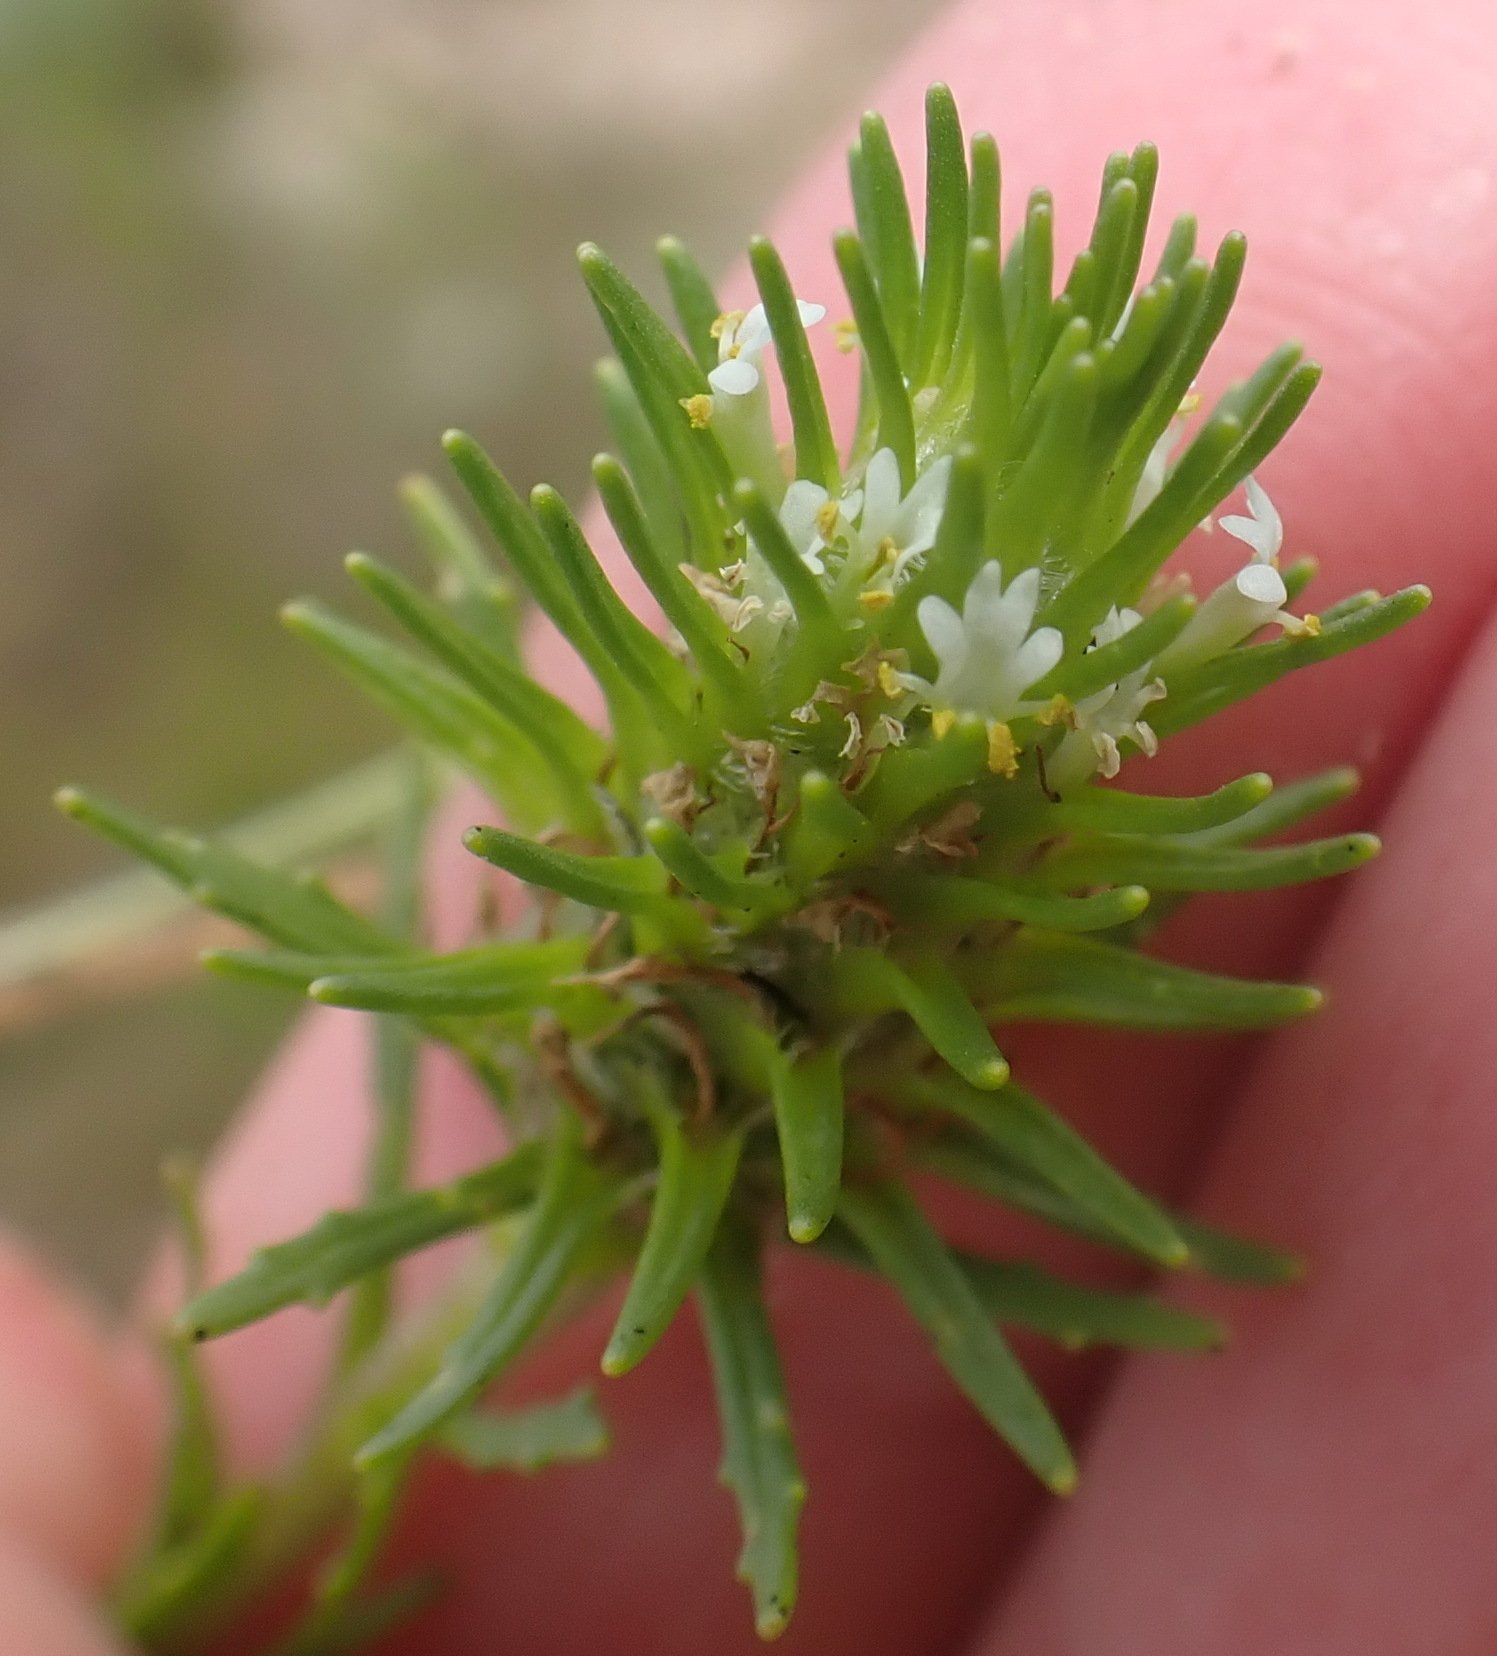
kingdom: Plantae
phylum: Tracheophyta
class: Magnoliopsida
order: Lamiales
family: Scrophulariaceae
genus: Dischisma
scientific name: Dischisma capitatum
